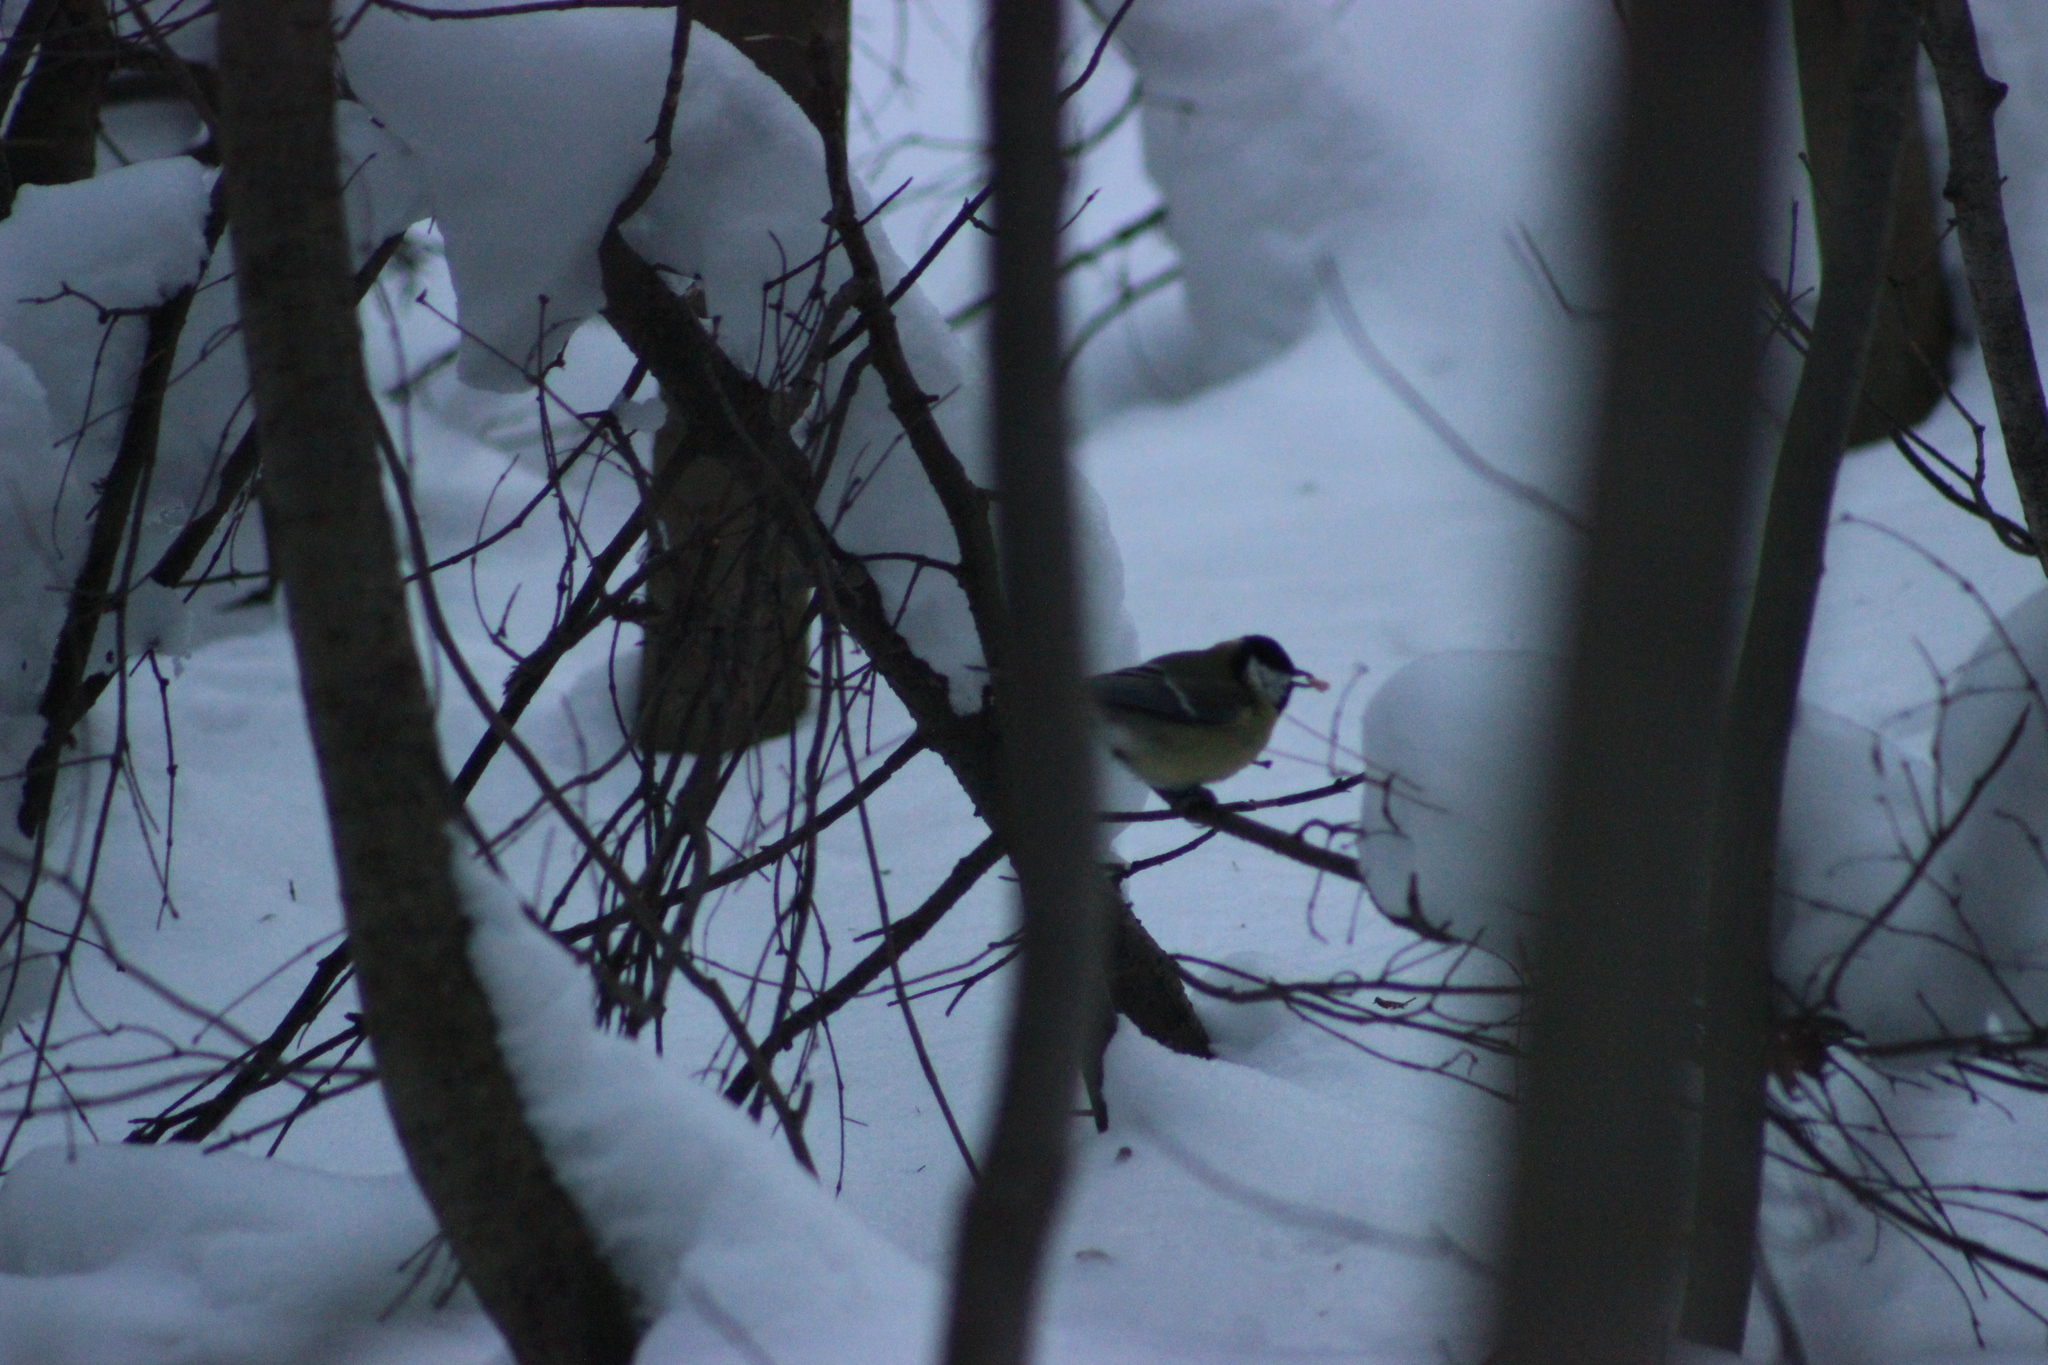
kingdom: Animalia
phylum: Chordata
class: Aves
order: Passeriformes
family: Paridae
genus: Parus
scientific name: Parus major
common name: Great tit
